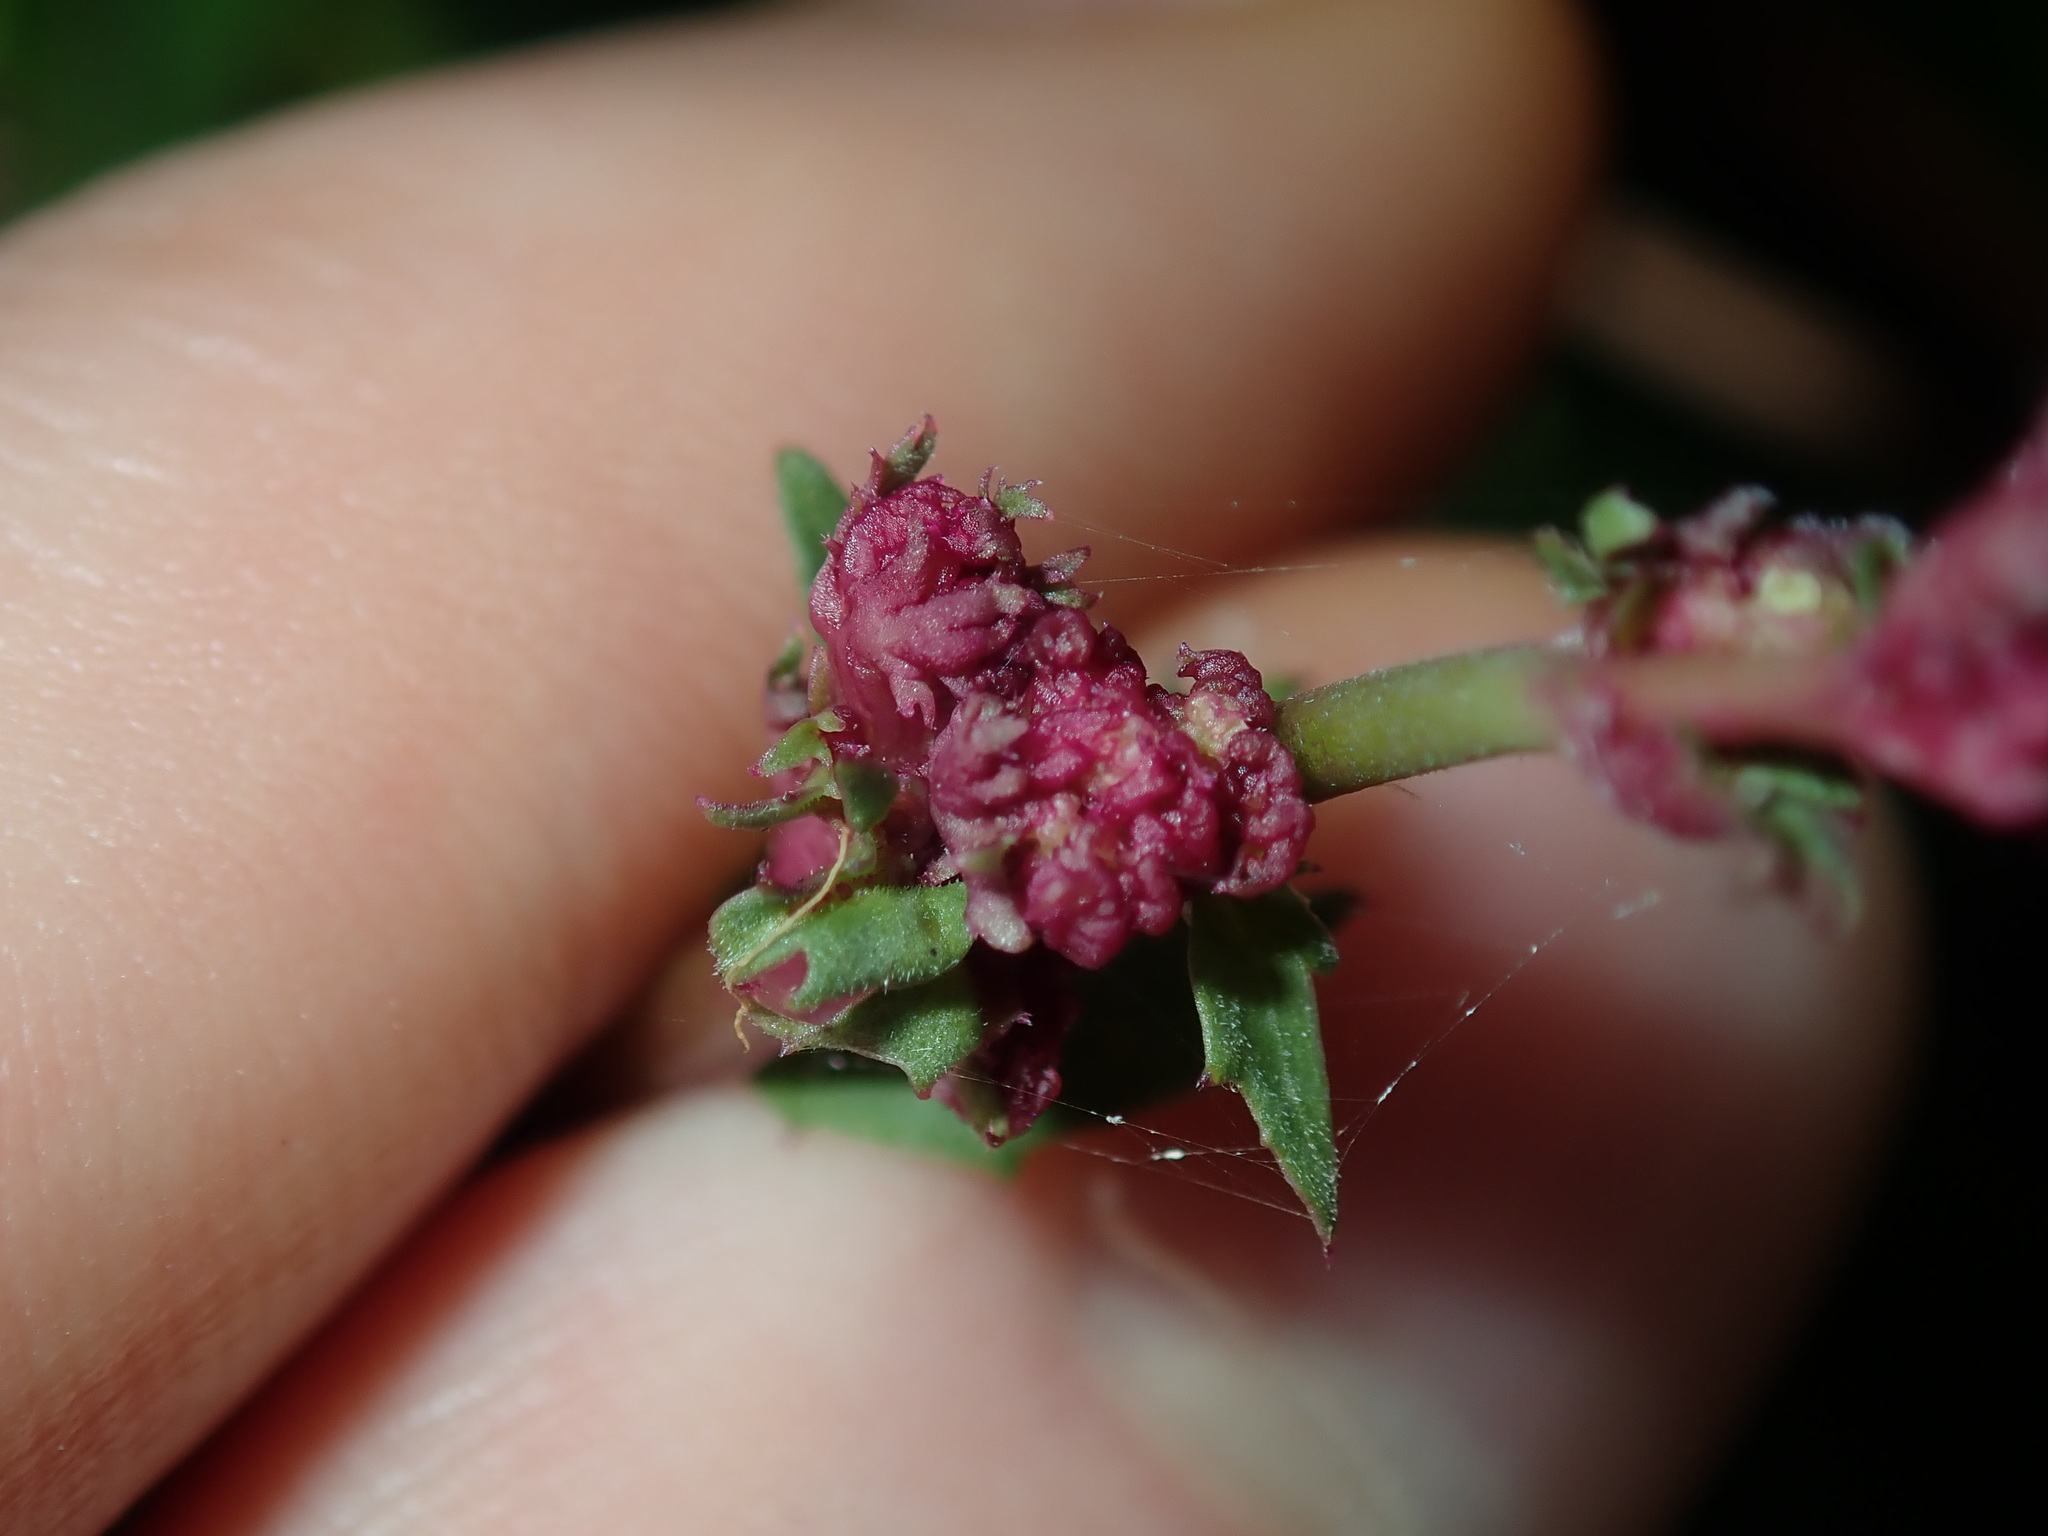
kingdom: Plantae
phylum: Tracheophyta
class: Magnoliopsida
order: Asterales
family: Campanulaceae
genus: Lobelia
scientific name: Lobelia purpurascens
